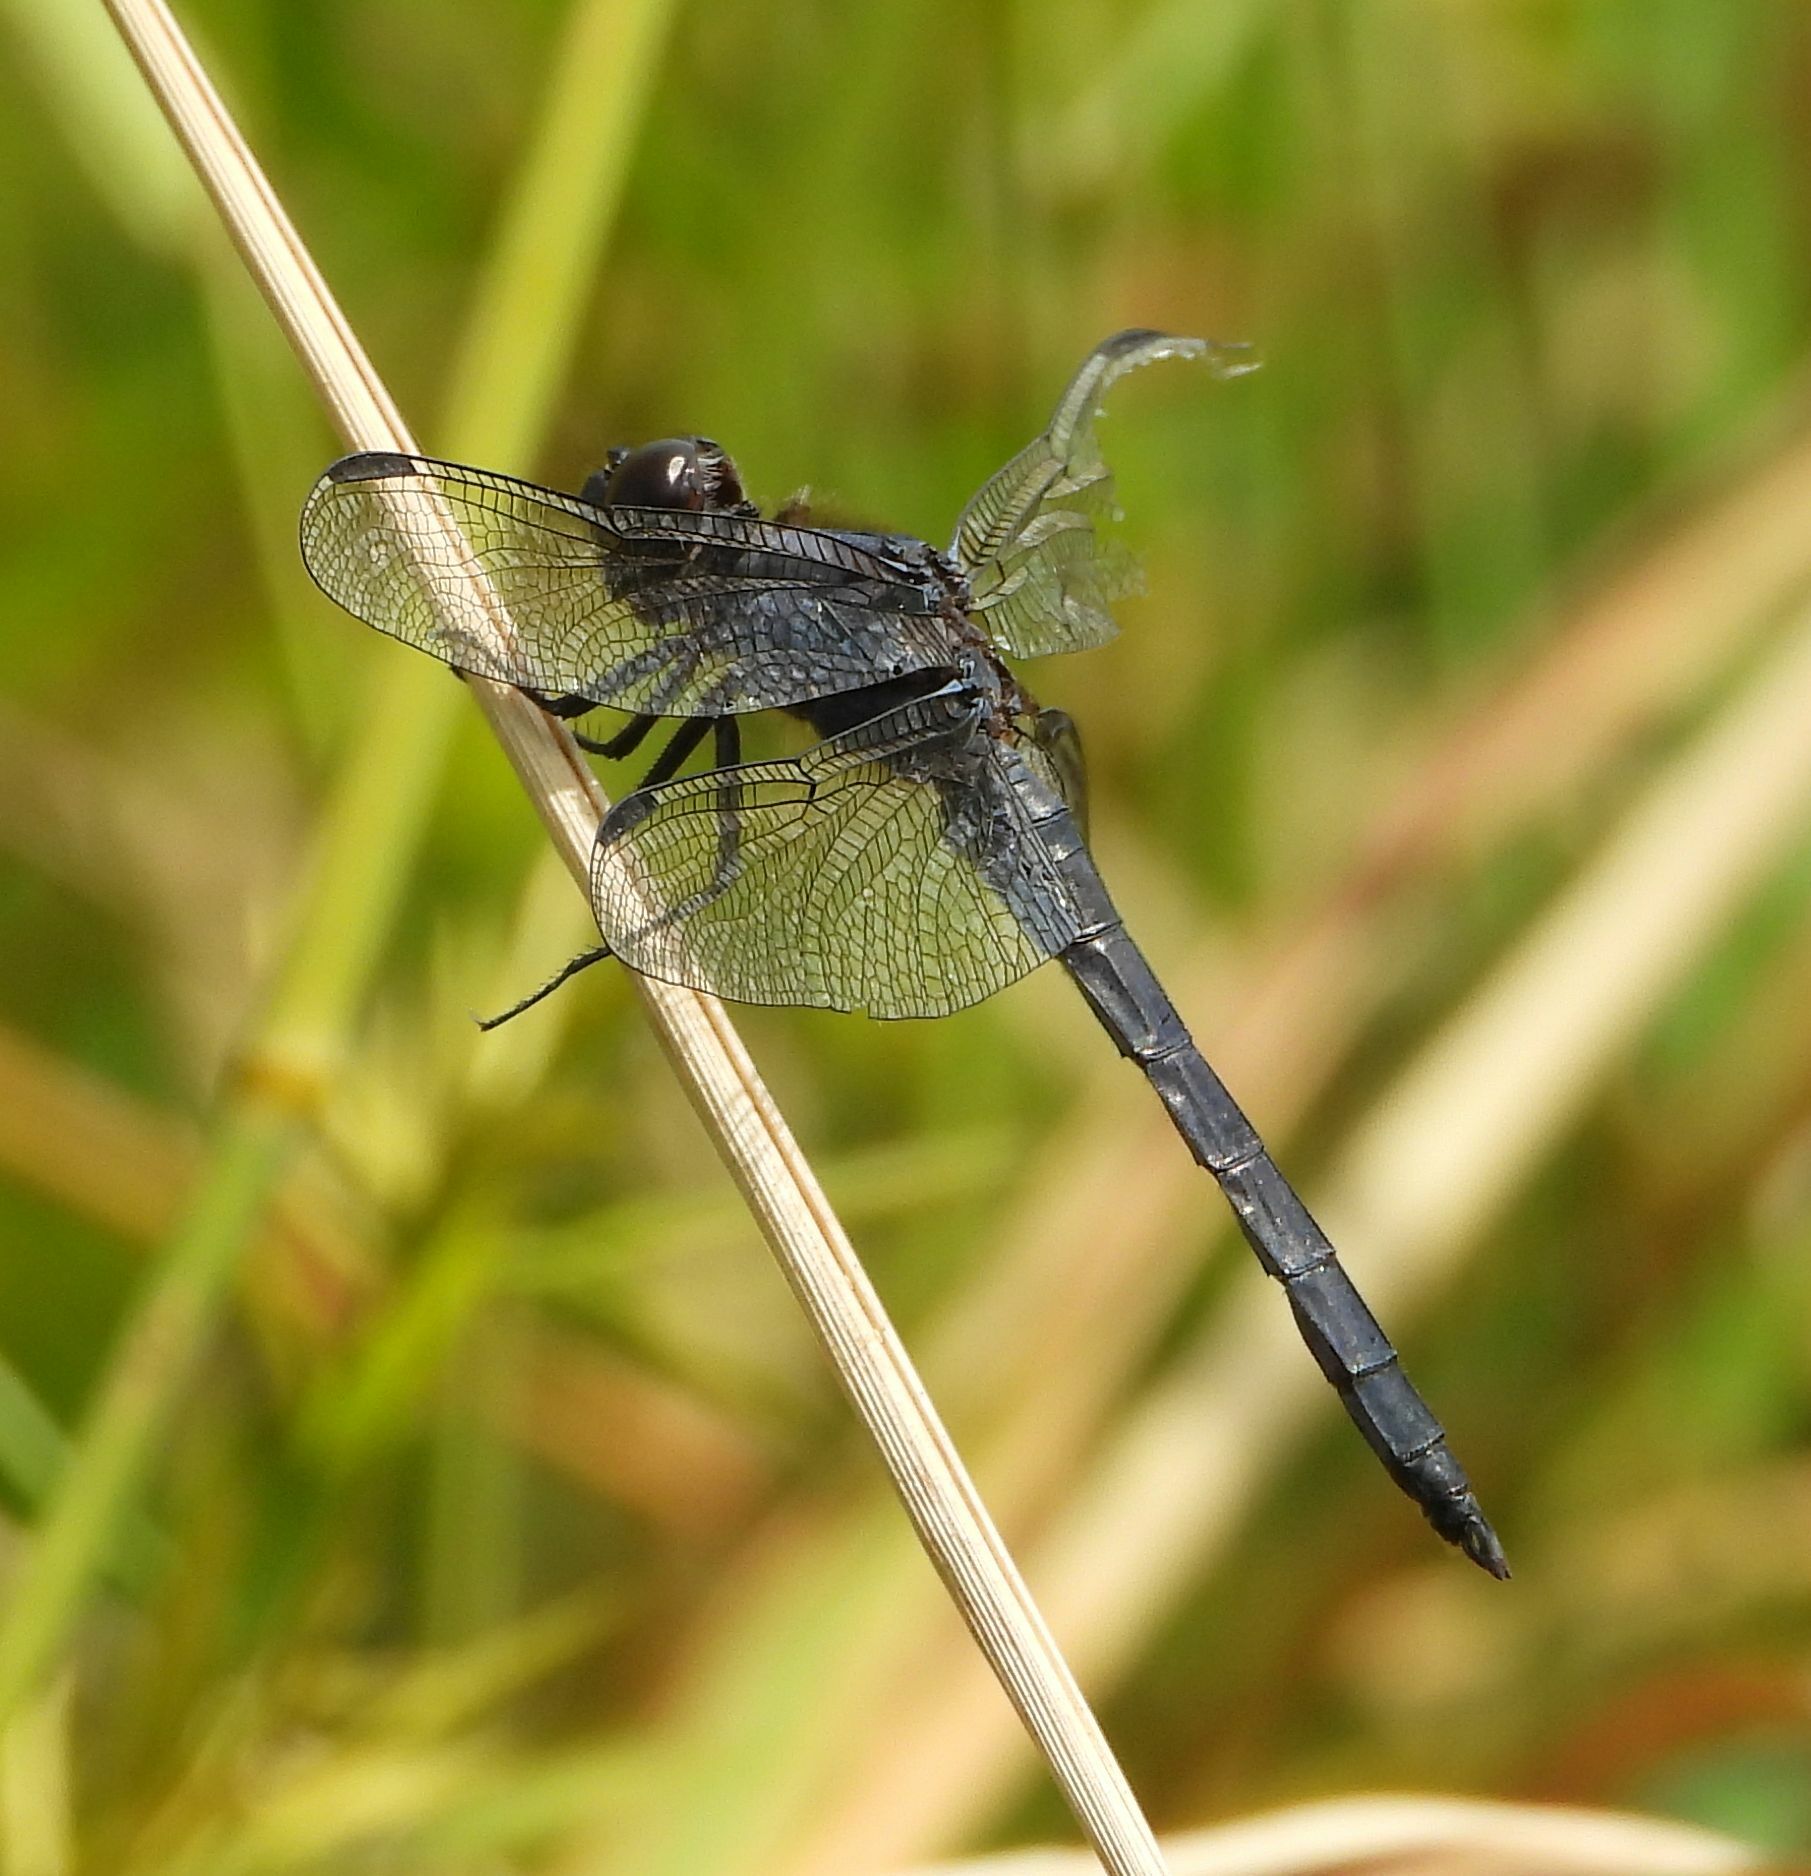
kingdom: Animalia
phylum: Arthropoda
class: Insecta
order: Odonata
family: Libellulidae
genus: Libellula
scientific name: Libellula incesta
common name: Slaty skimmer
